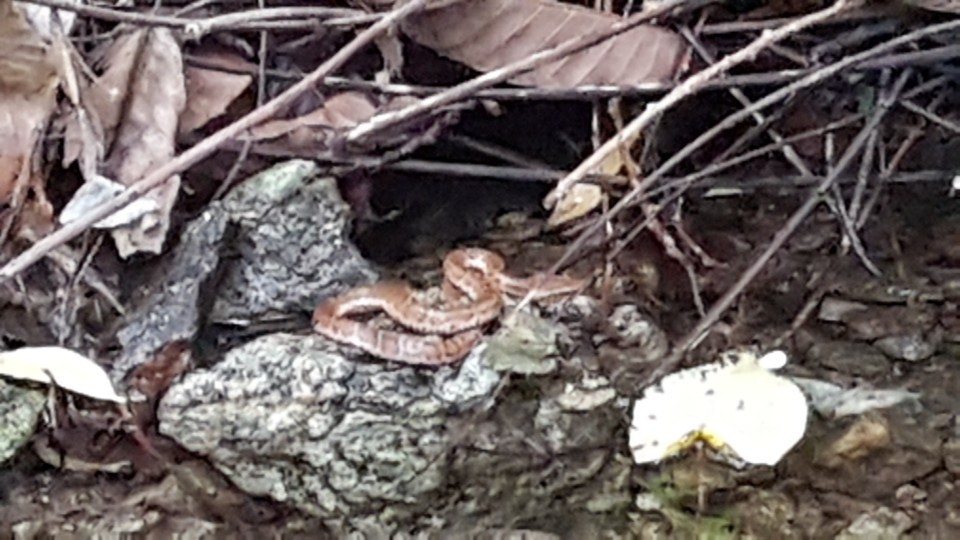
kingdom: Animalia
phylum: Chordata
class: Squamata
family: Viperidae
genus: Gloydius
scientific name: Gloydius ussuriensis
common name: Ussuri mamushi
